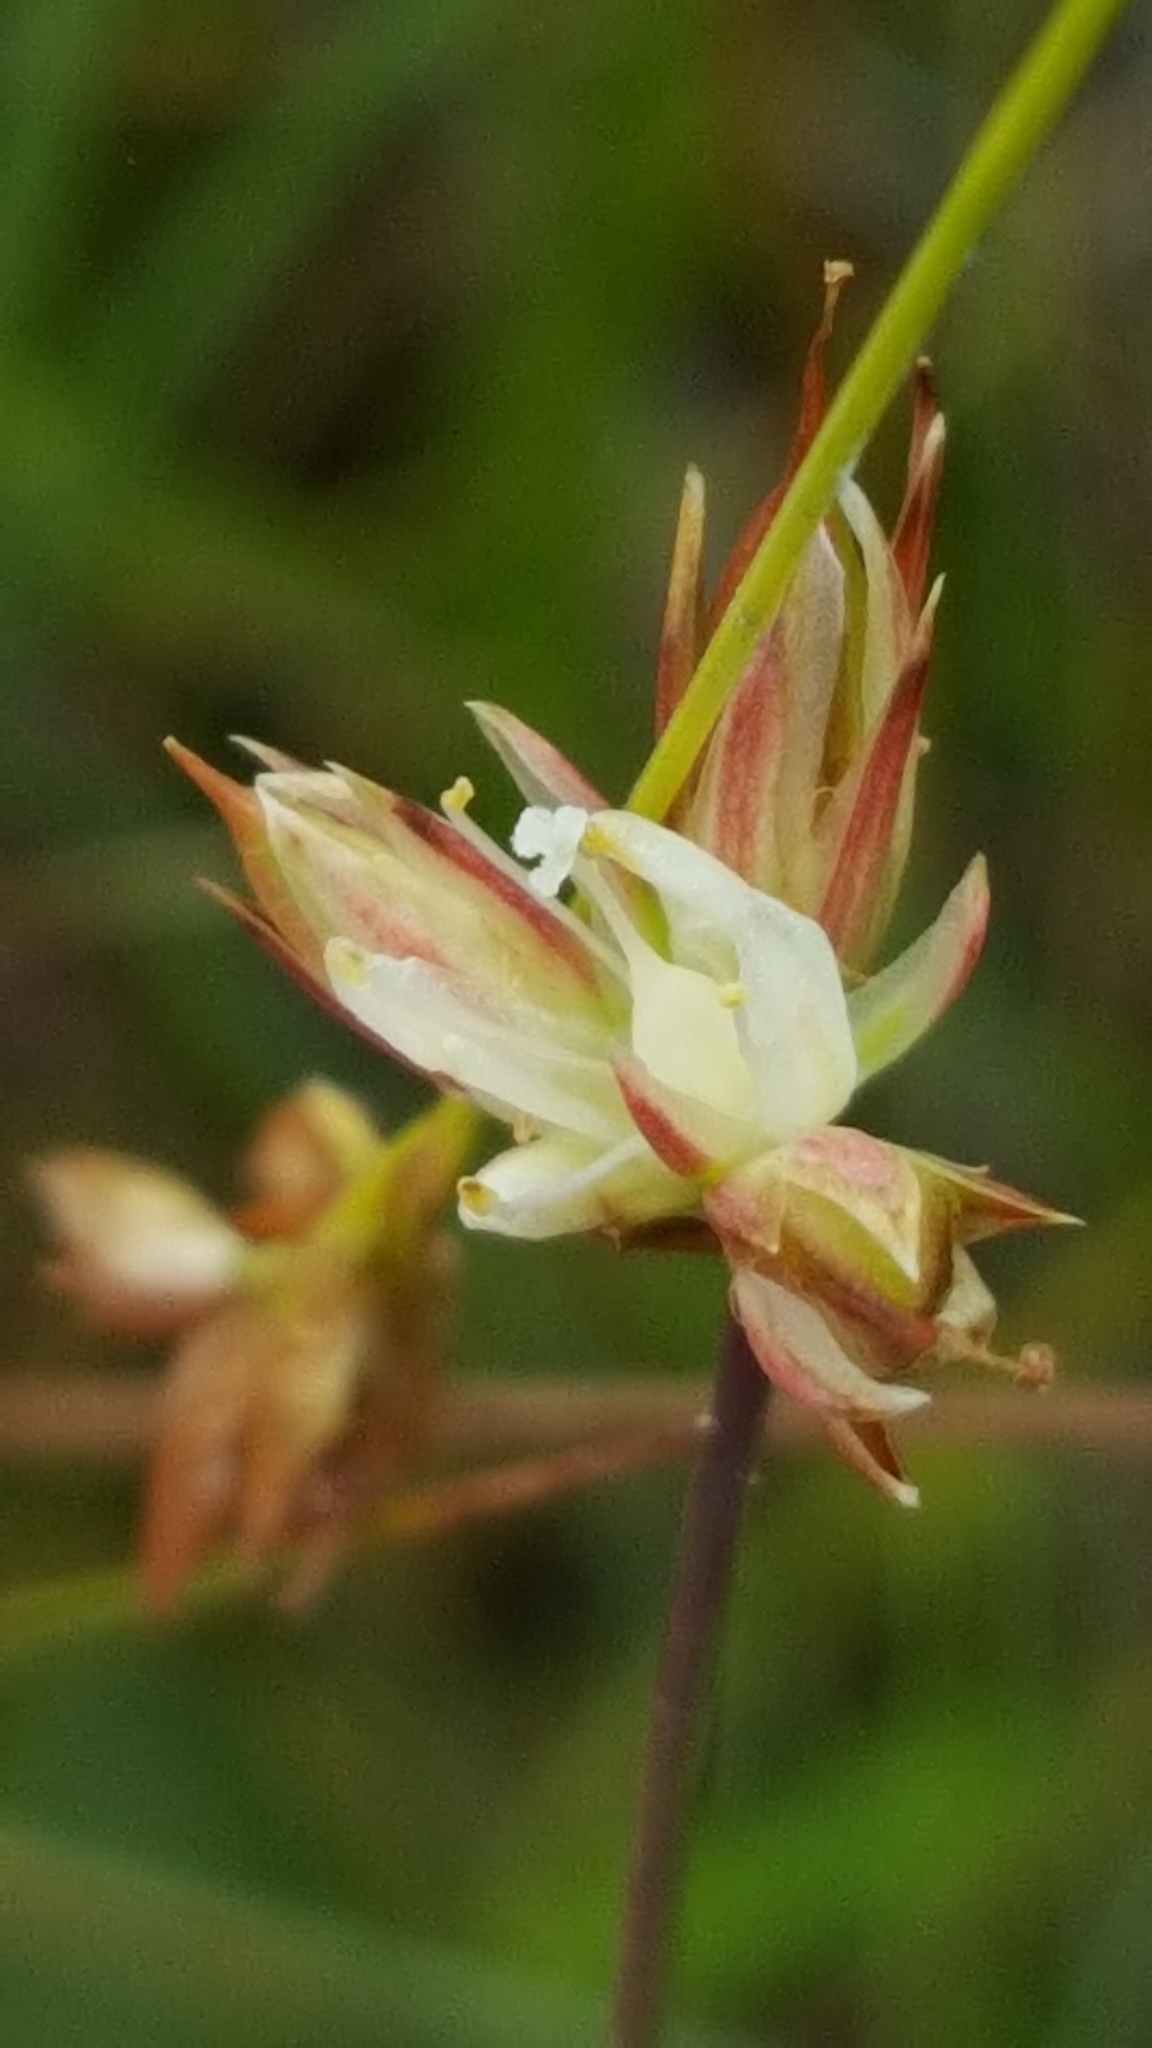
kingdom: Plantae
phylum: Tracheophyta
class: Liliopsida
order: Poales
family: Juncaceae
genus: Juncus
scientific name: Juncus stygius
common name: Bog rush
